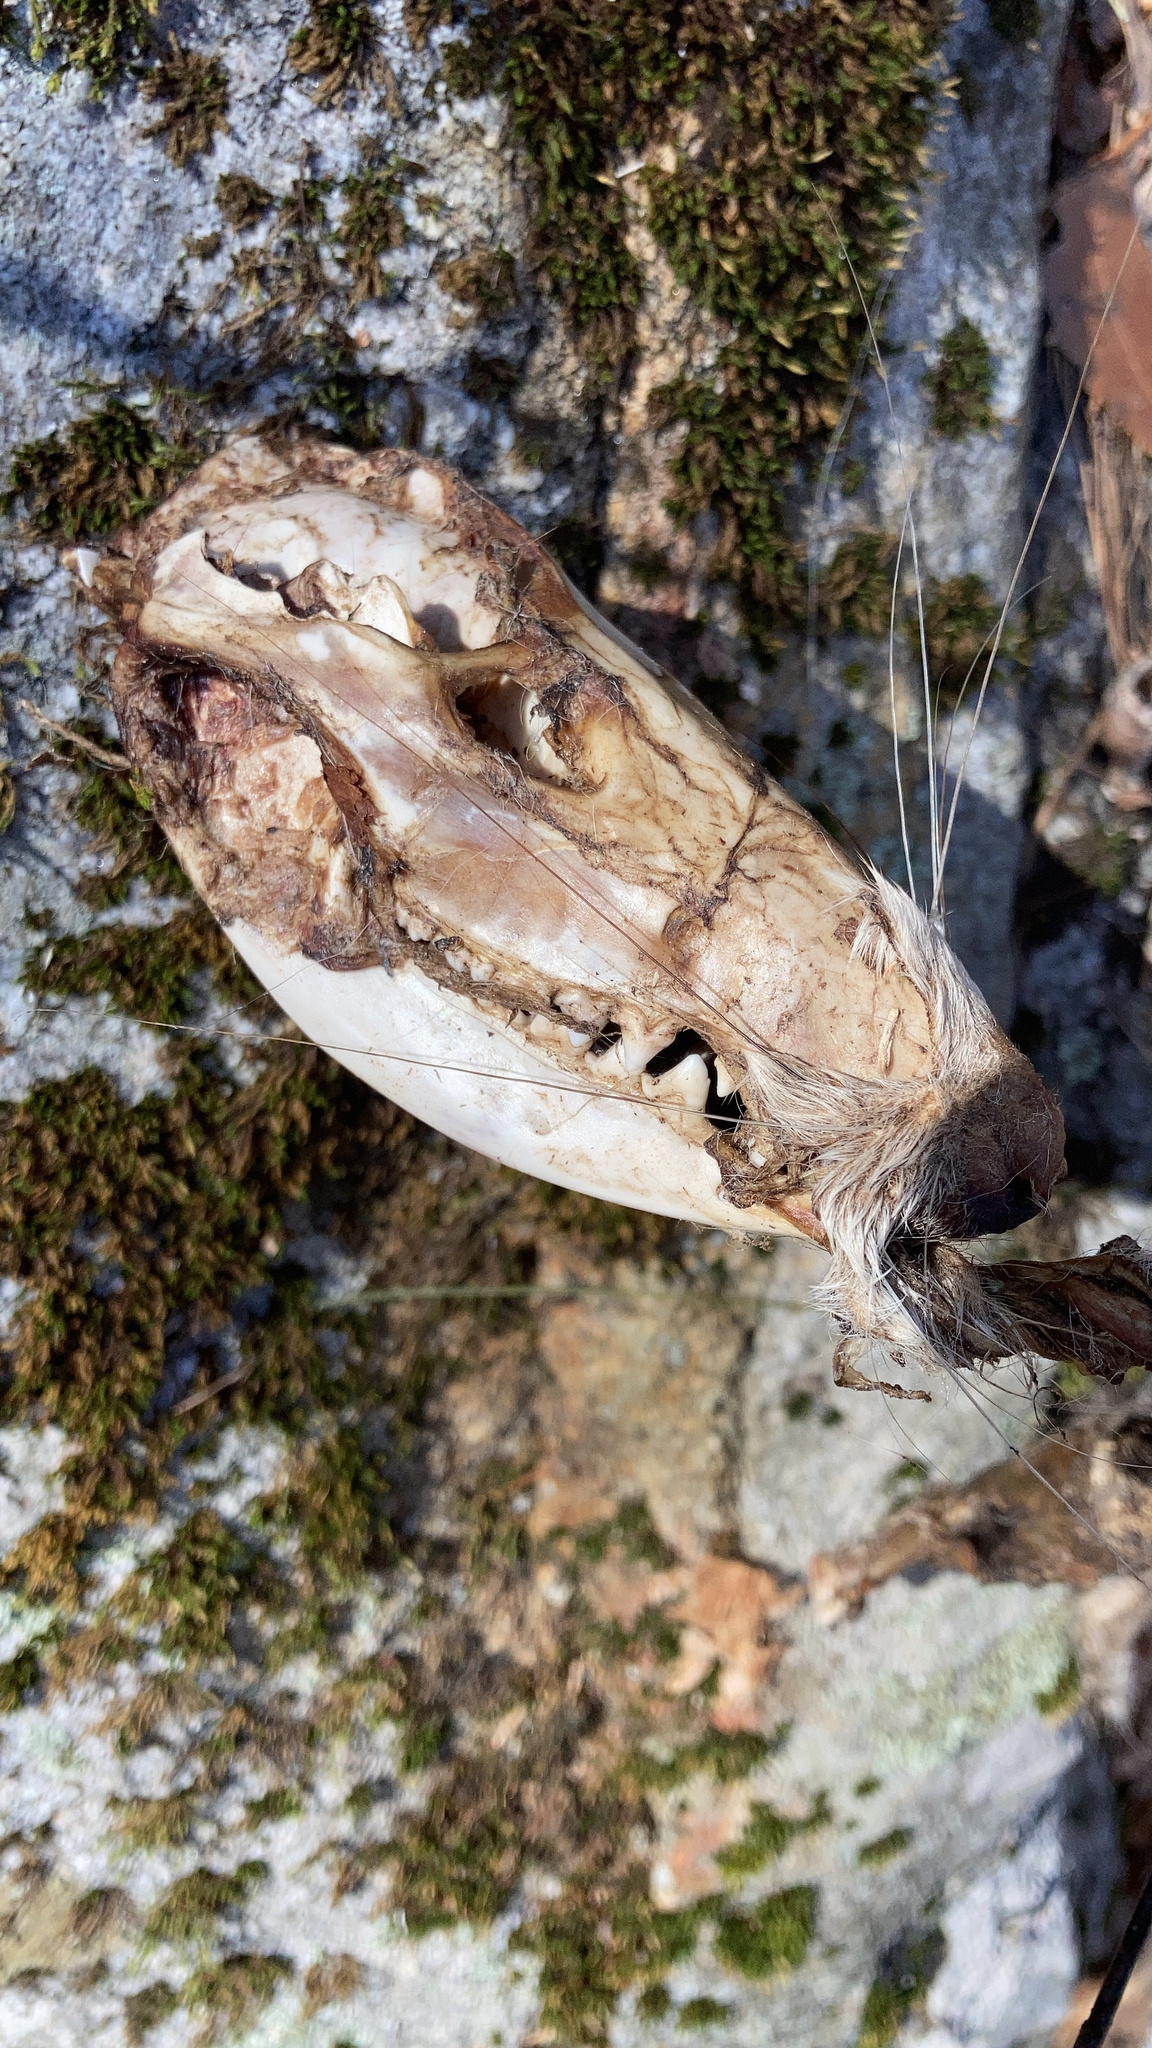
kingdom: Animalia
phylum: Chordata
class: Mammalia
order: Didelphimorphia
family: Didelphidae
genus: Didelphis
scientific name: Didelphis virginiana
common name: Virginia opossum
